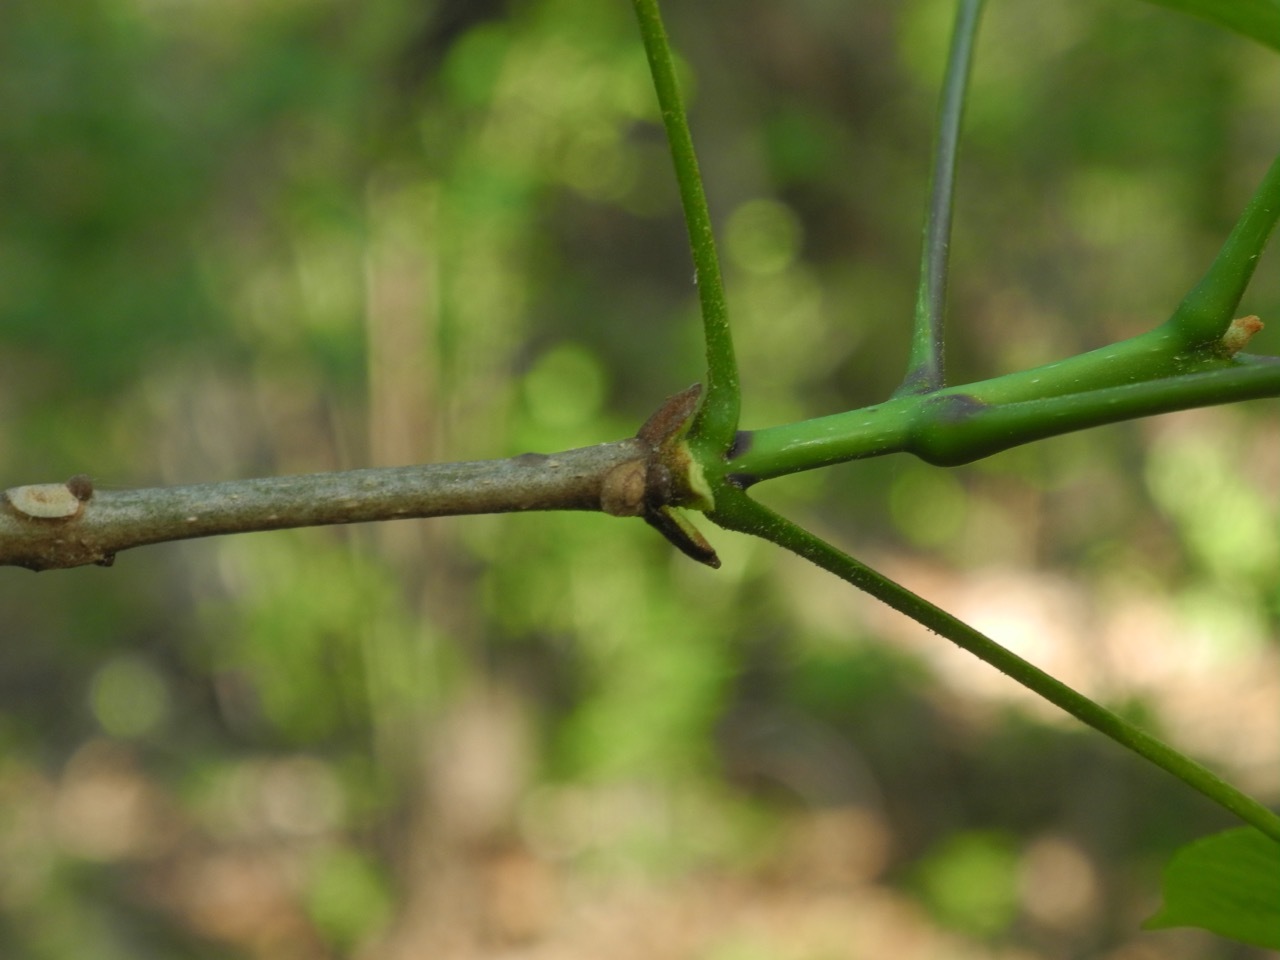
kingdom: Plantae
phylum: Tracheophyta
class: Magnoliopsida
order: Lamiales
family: Oleaceae
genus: Fraxinus
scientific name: Fraxinus pennsylvanica
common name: Green ash
